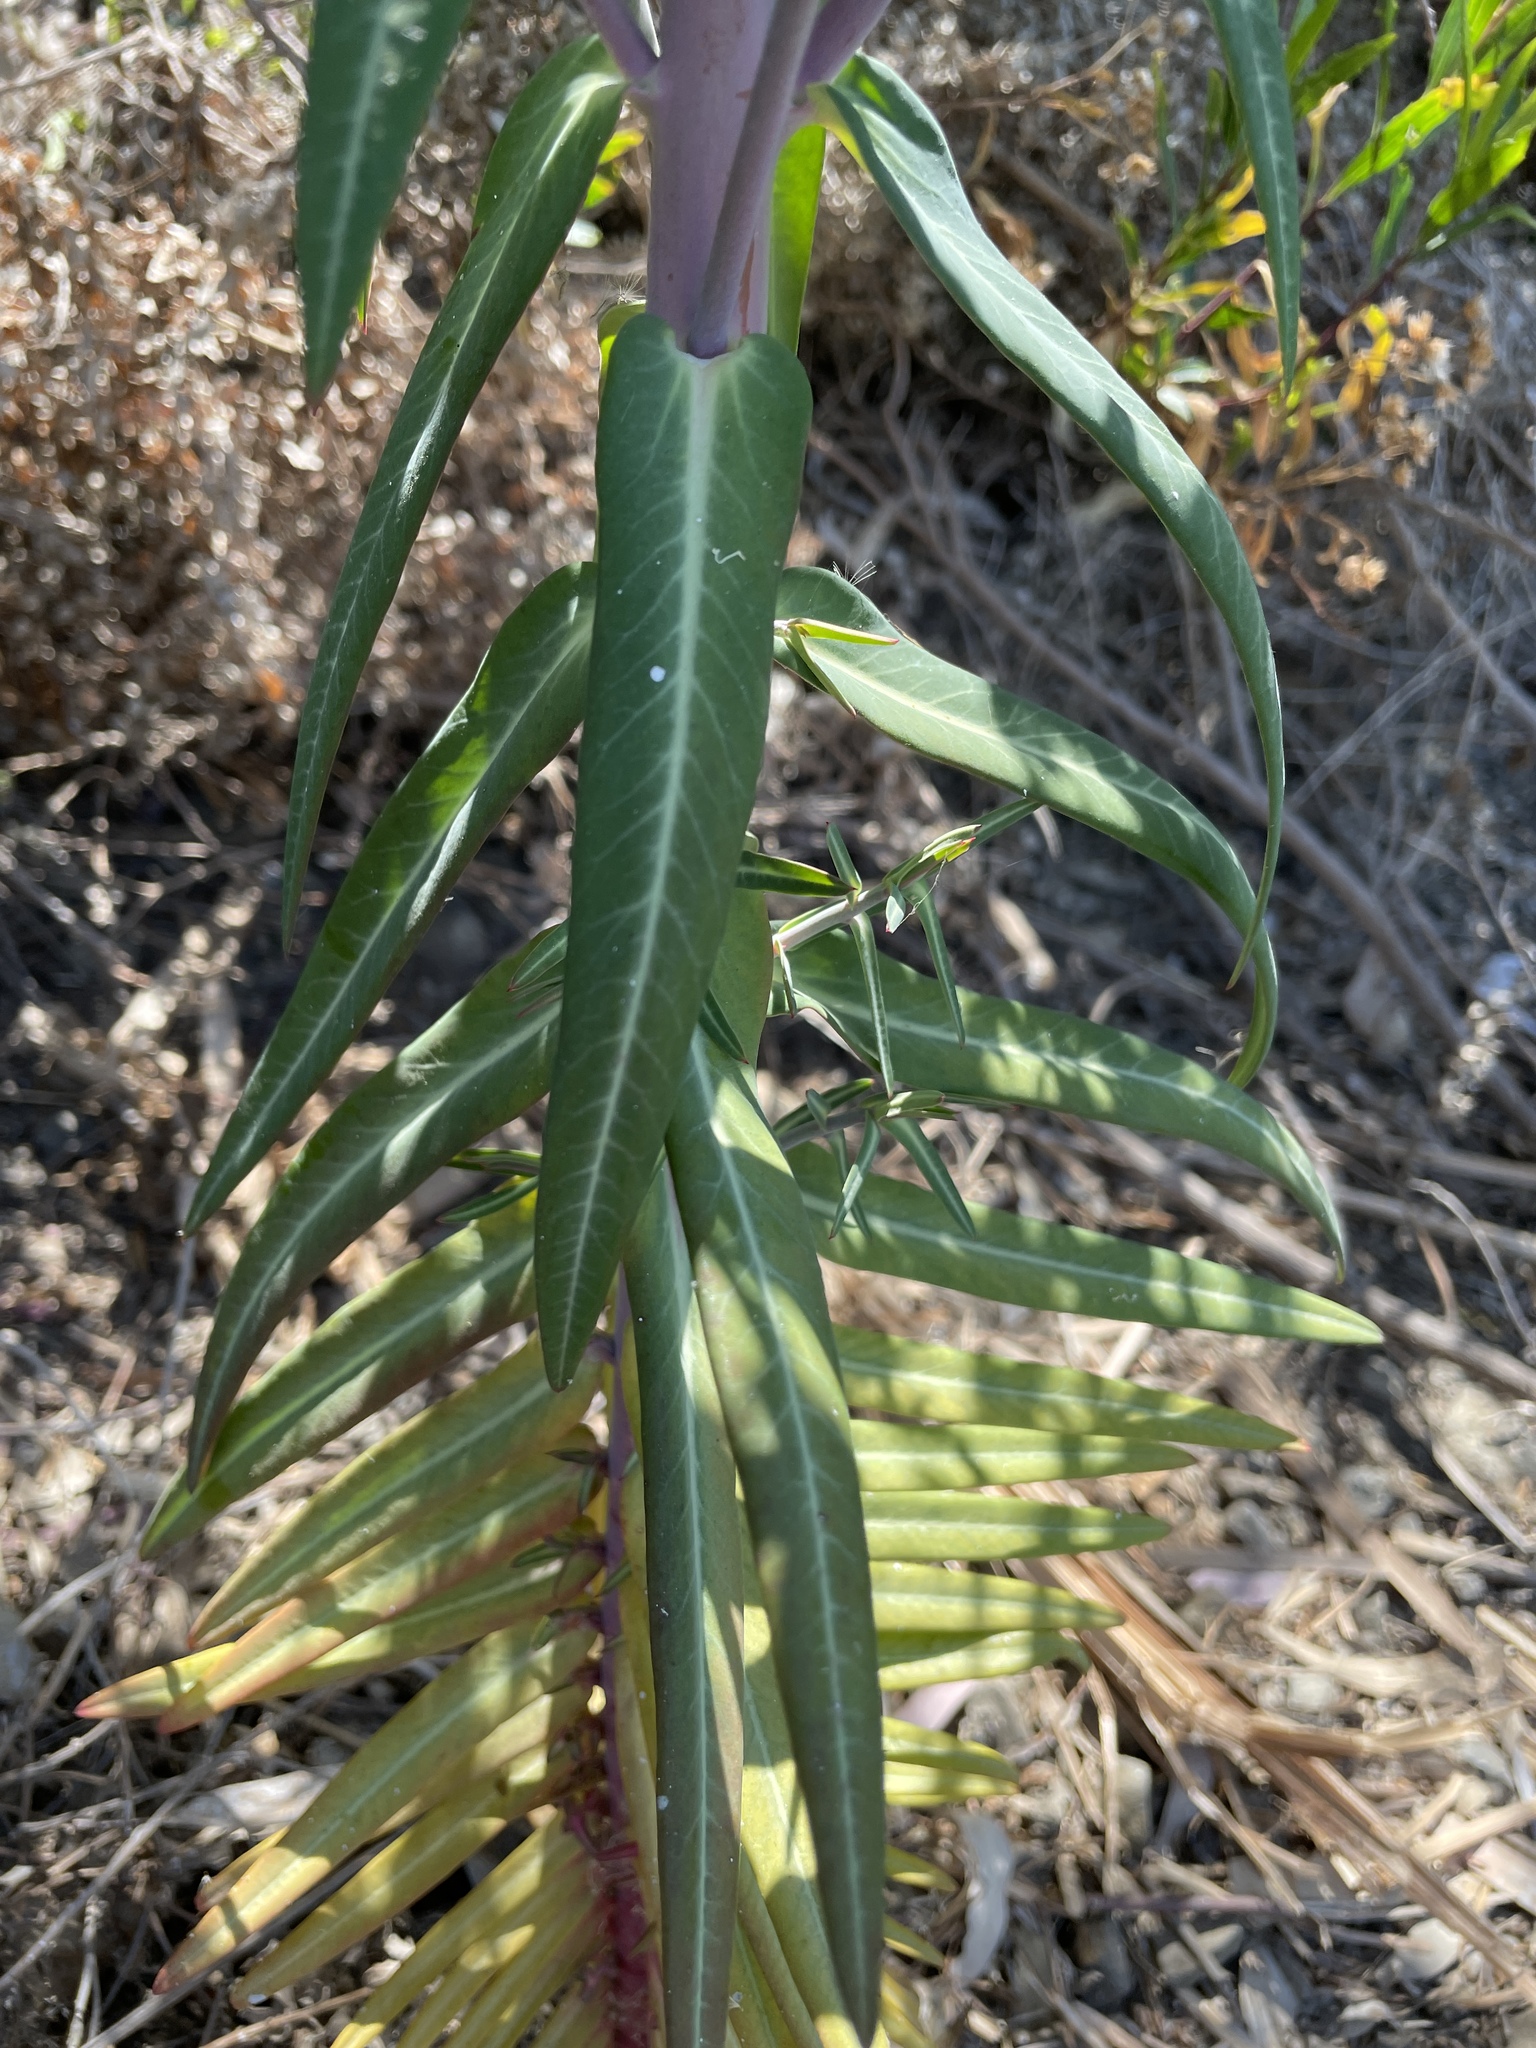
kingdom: Plantae
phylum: Tracheophyta
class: Magnoliopsida
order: Malpighiales
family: Euphorbiaceae
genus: Euphorbia
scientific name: Euphorbia lathyris
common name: Caper spurge
